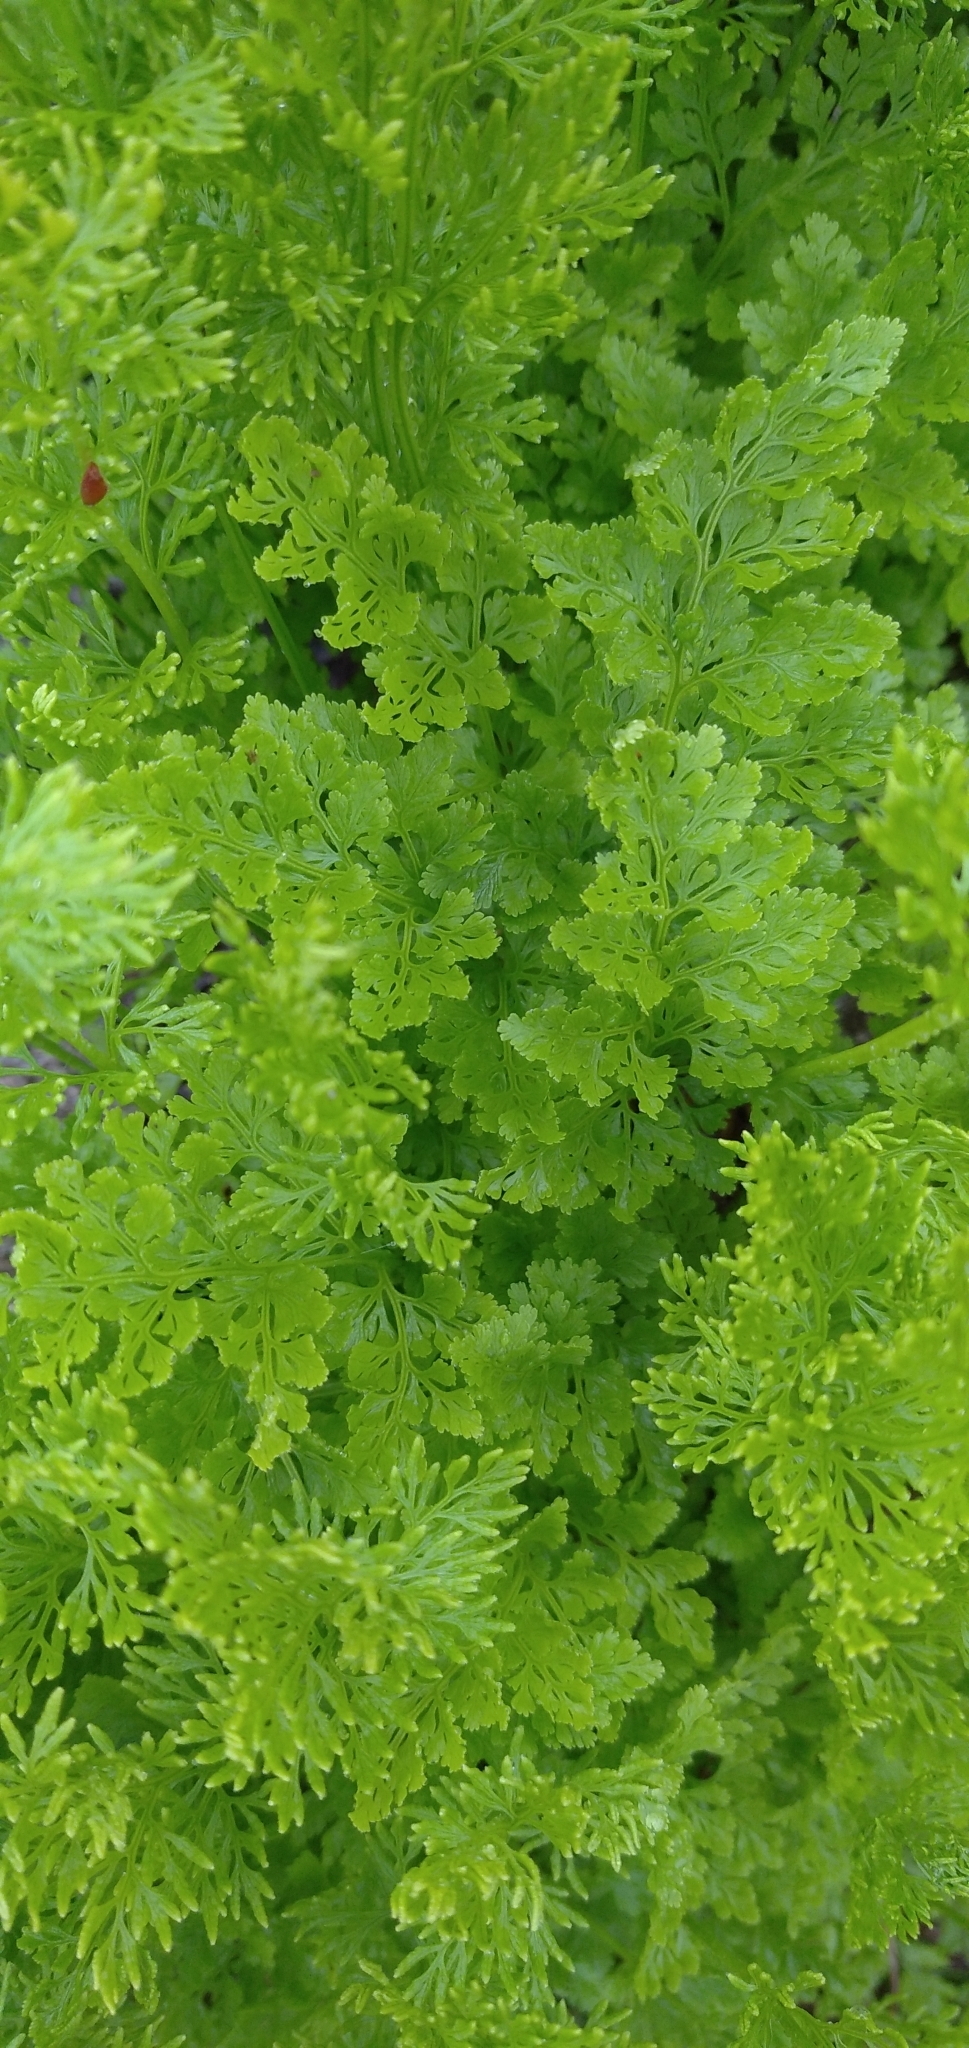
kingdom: Plantae
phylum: Tracheophyta
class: Polypodiopsida
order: Polypodiales
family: Pteridaceae
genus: Cryptogramma
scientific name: Cryptogramma crispa
